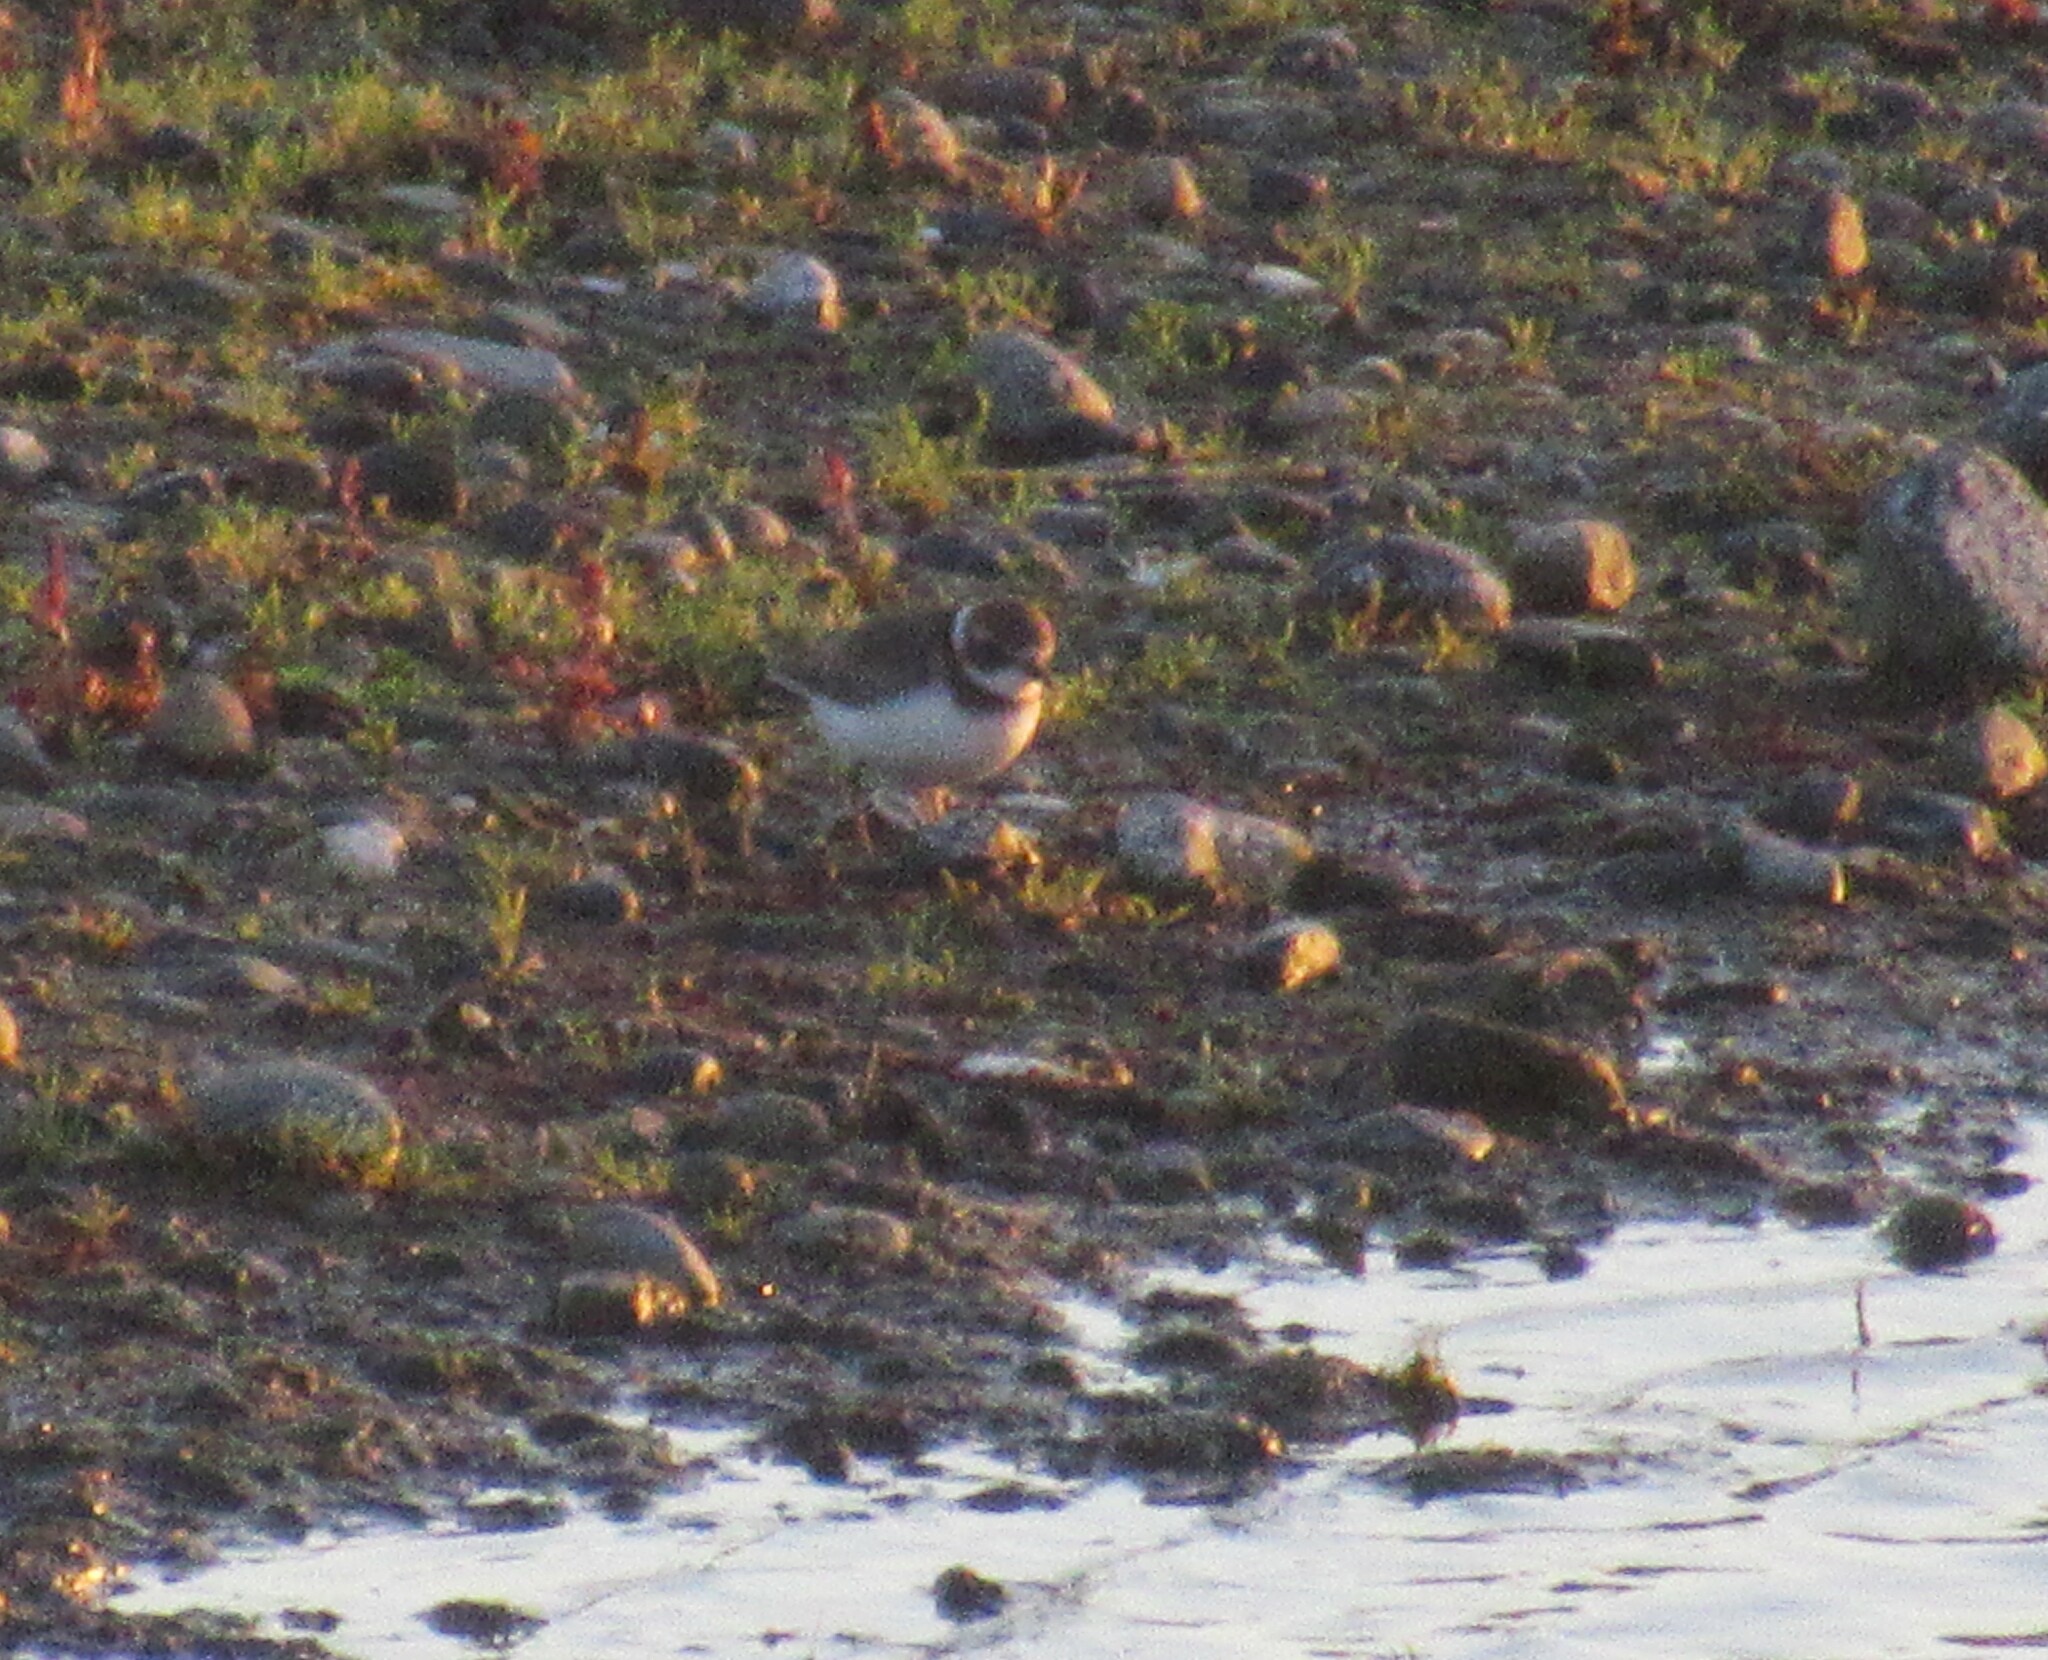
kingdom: Animalia
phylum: Chordata
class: Aves
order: Charadriiformes
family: Charadriidae
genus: Charadrius
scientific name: Charadrius semipalmatus
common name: Semipalmated plover
